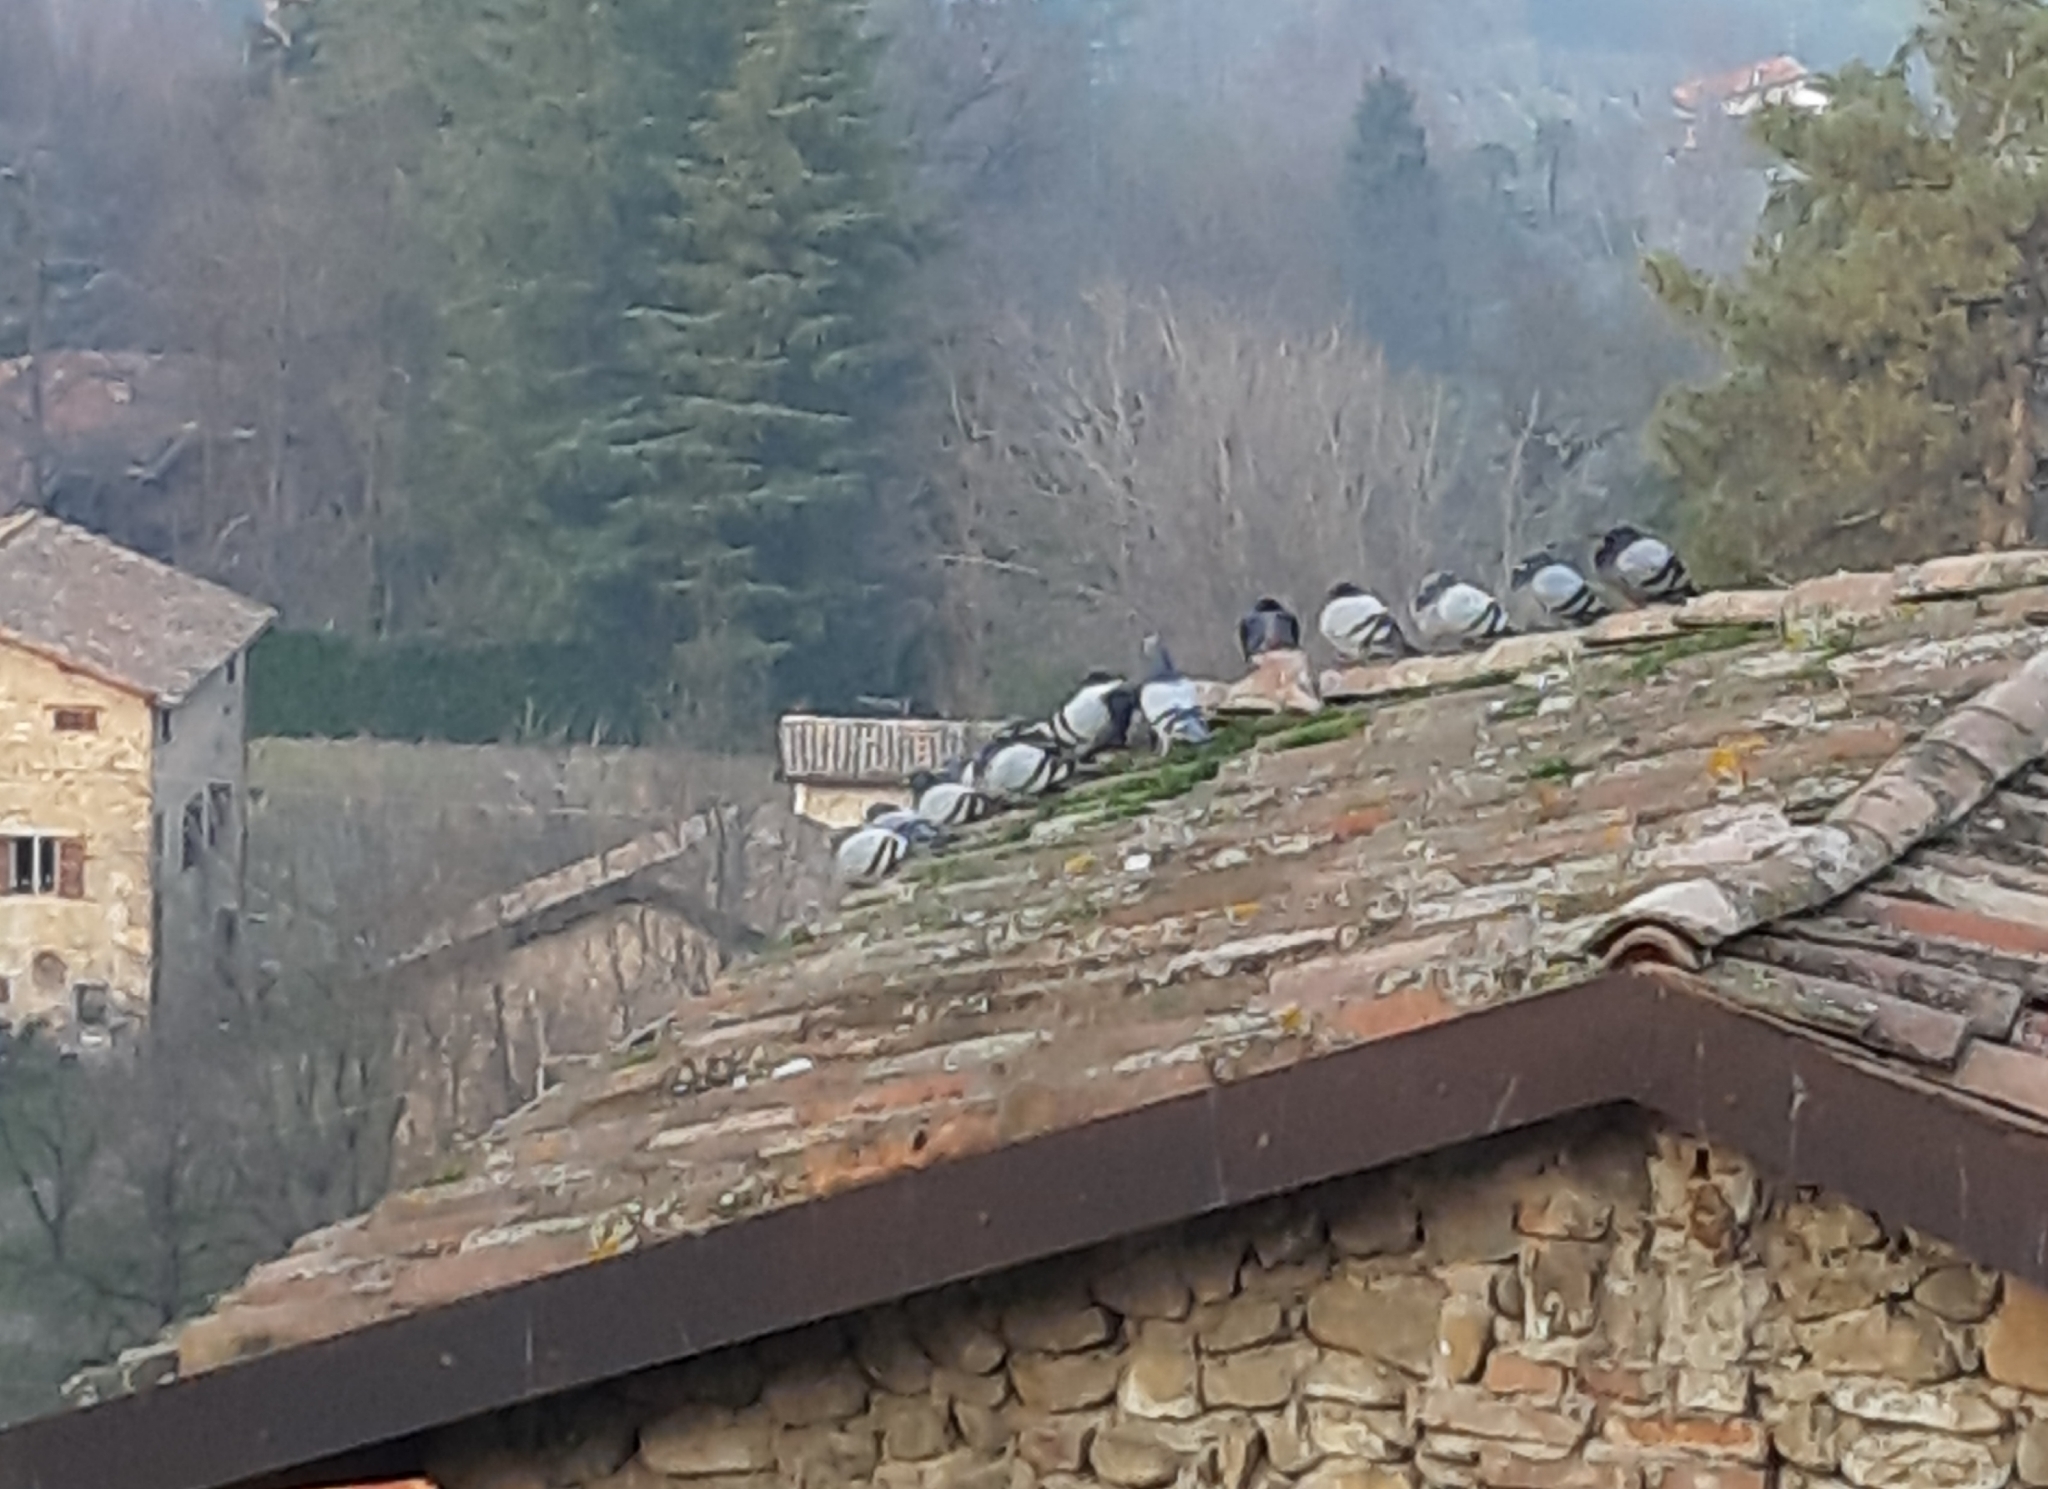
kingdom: Animalia
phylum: Chordata
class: Aves
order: Columbiformes
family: Columbidae
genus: Columba
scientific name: Columba livia
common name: Rock pigeon
